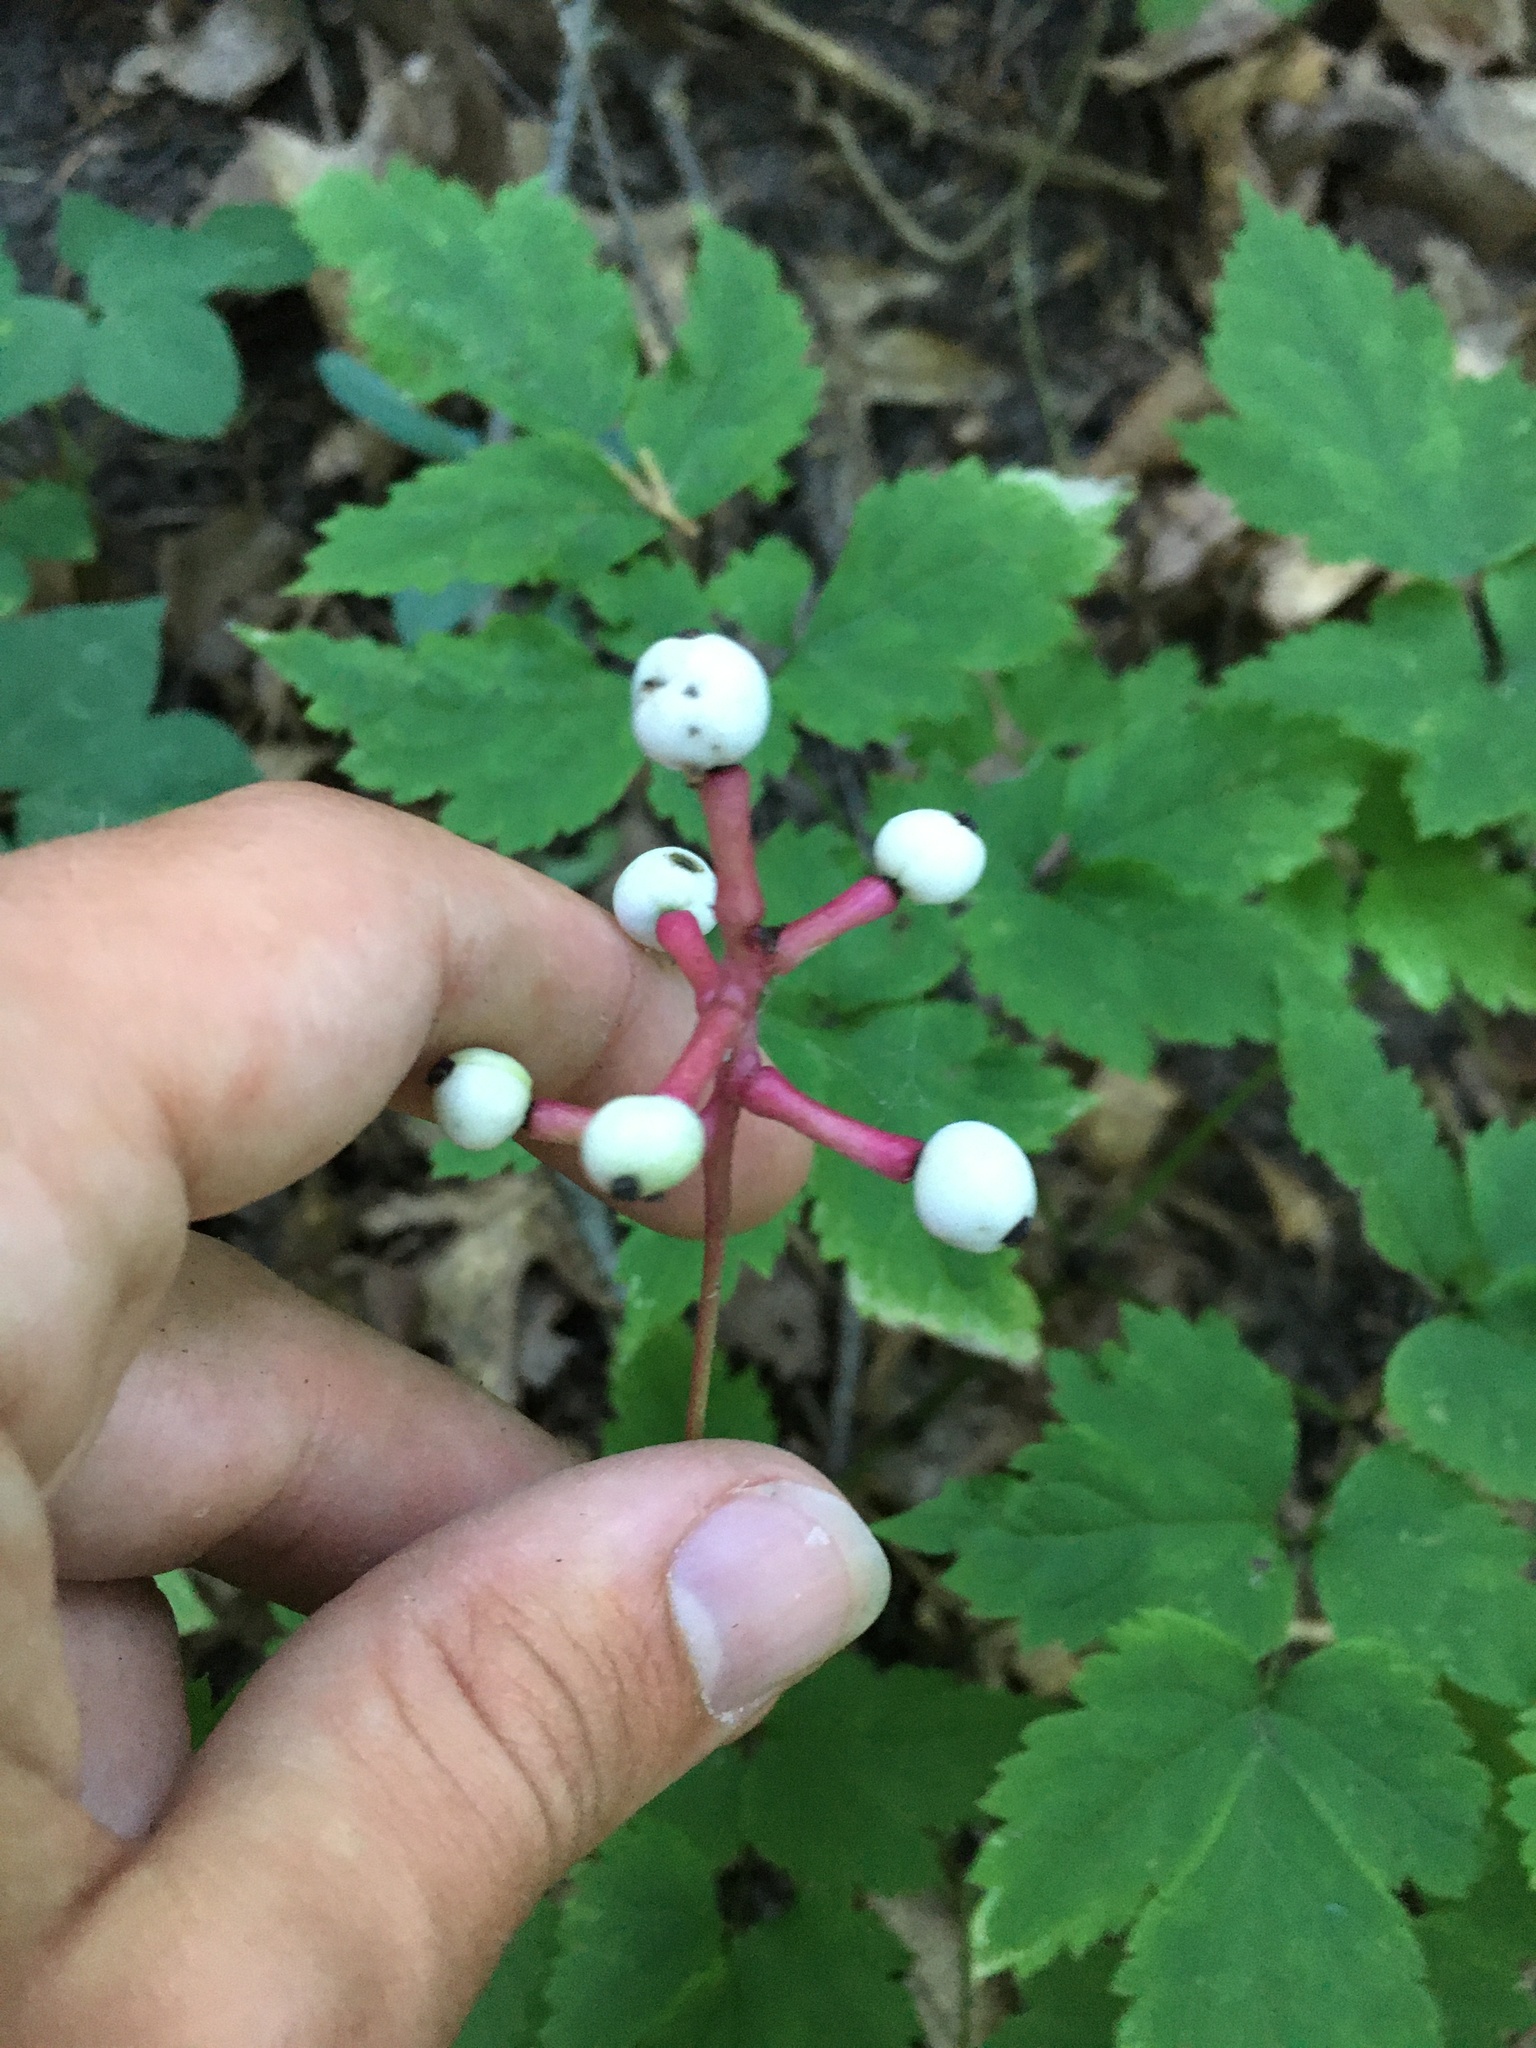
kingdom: Plantae
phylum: Tracheophyta
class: Magnoliopsida
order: Ranunculales
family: Ranunculaceae
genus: Actaea
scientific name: Actaea pachypoda
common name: Doll's-eyes
